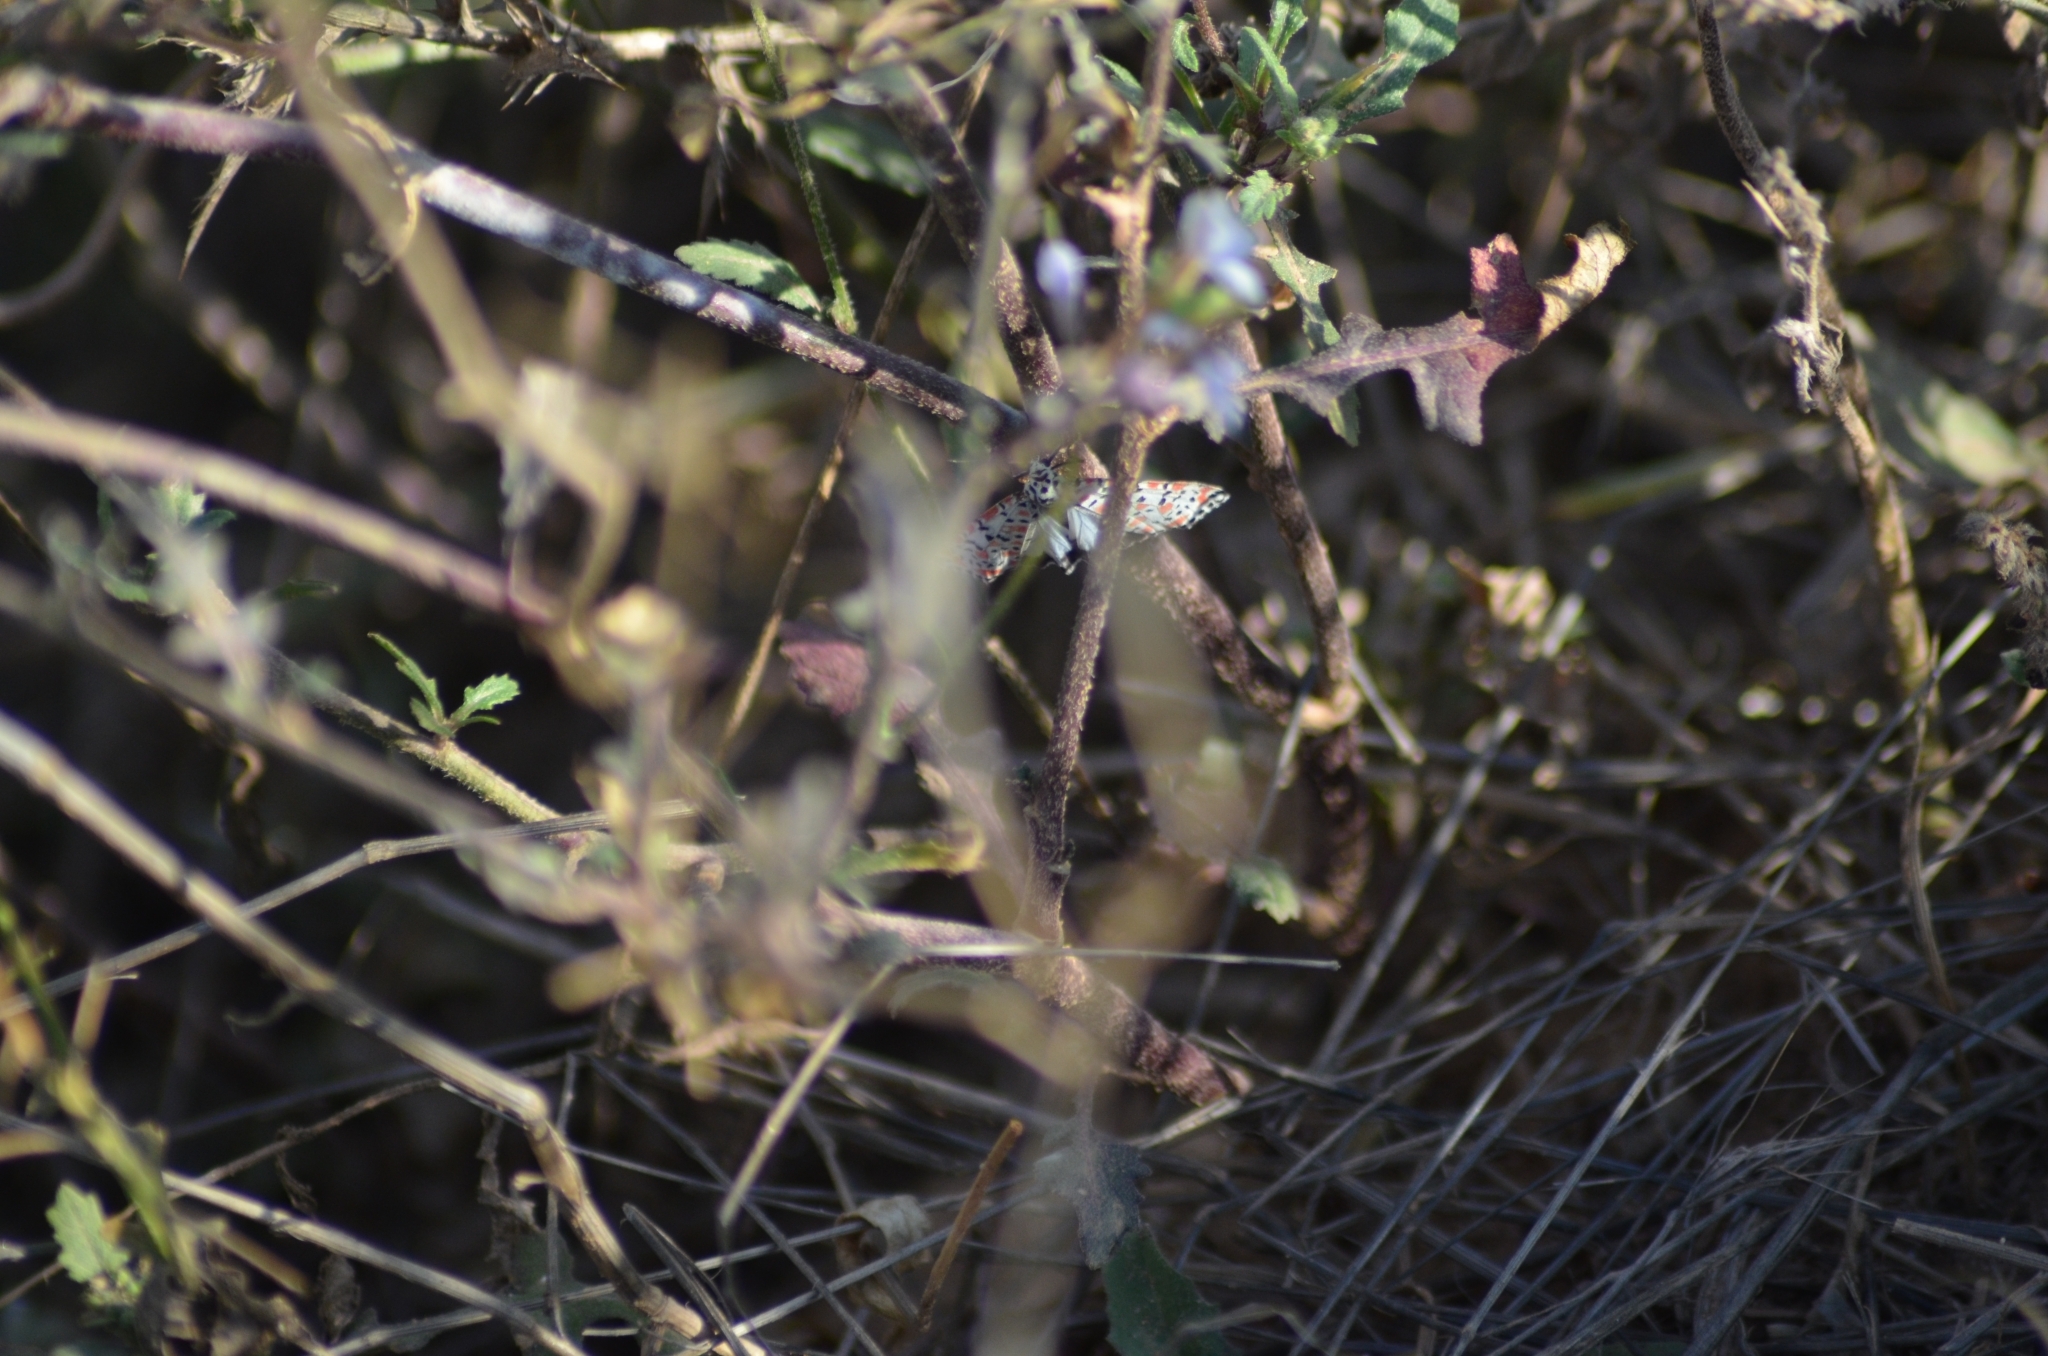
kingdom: Animalia
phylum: Arthropoda
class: Insecta
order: Lepidoptera
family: Erebidae
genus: Utetheisa
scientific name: Utetheisa pulchella
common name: Crimson speckled
